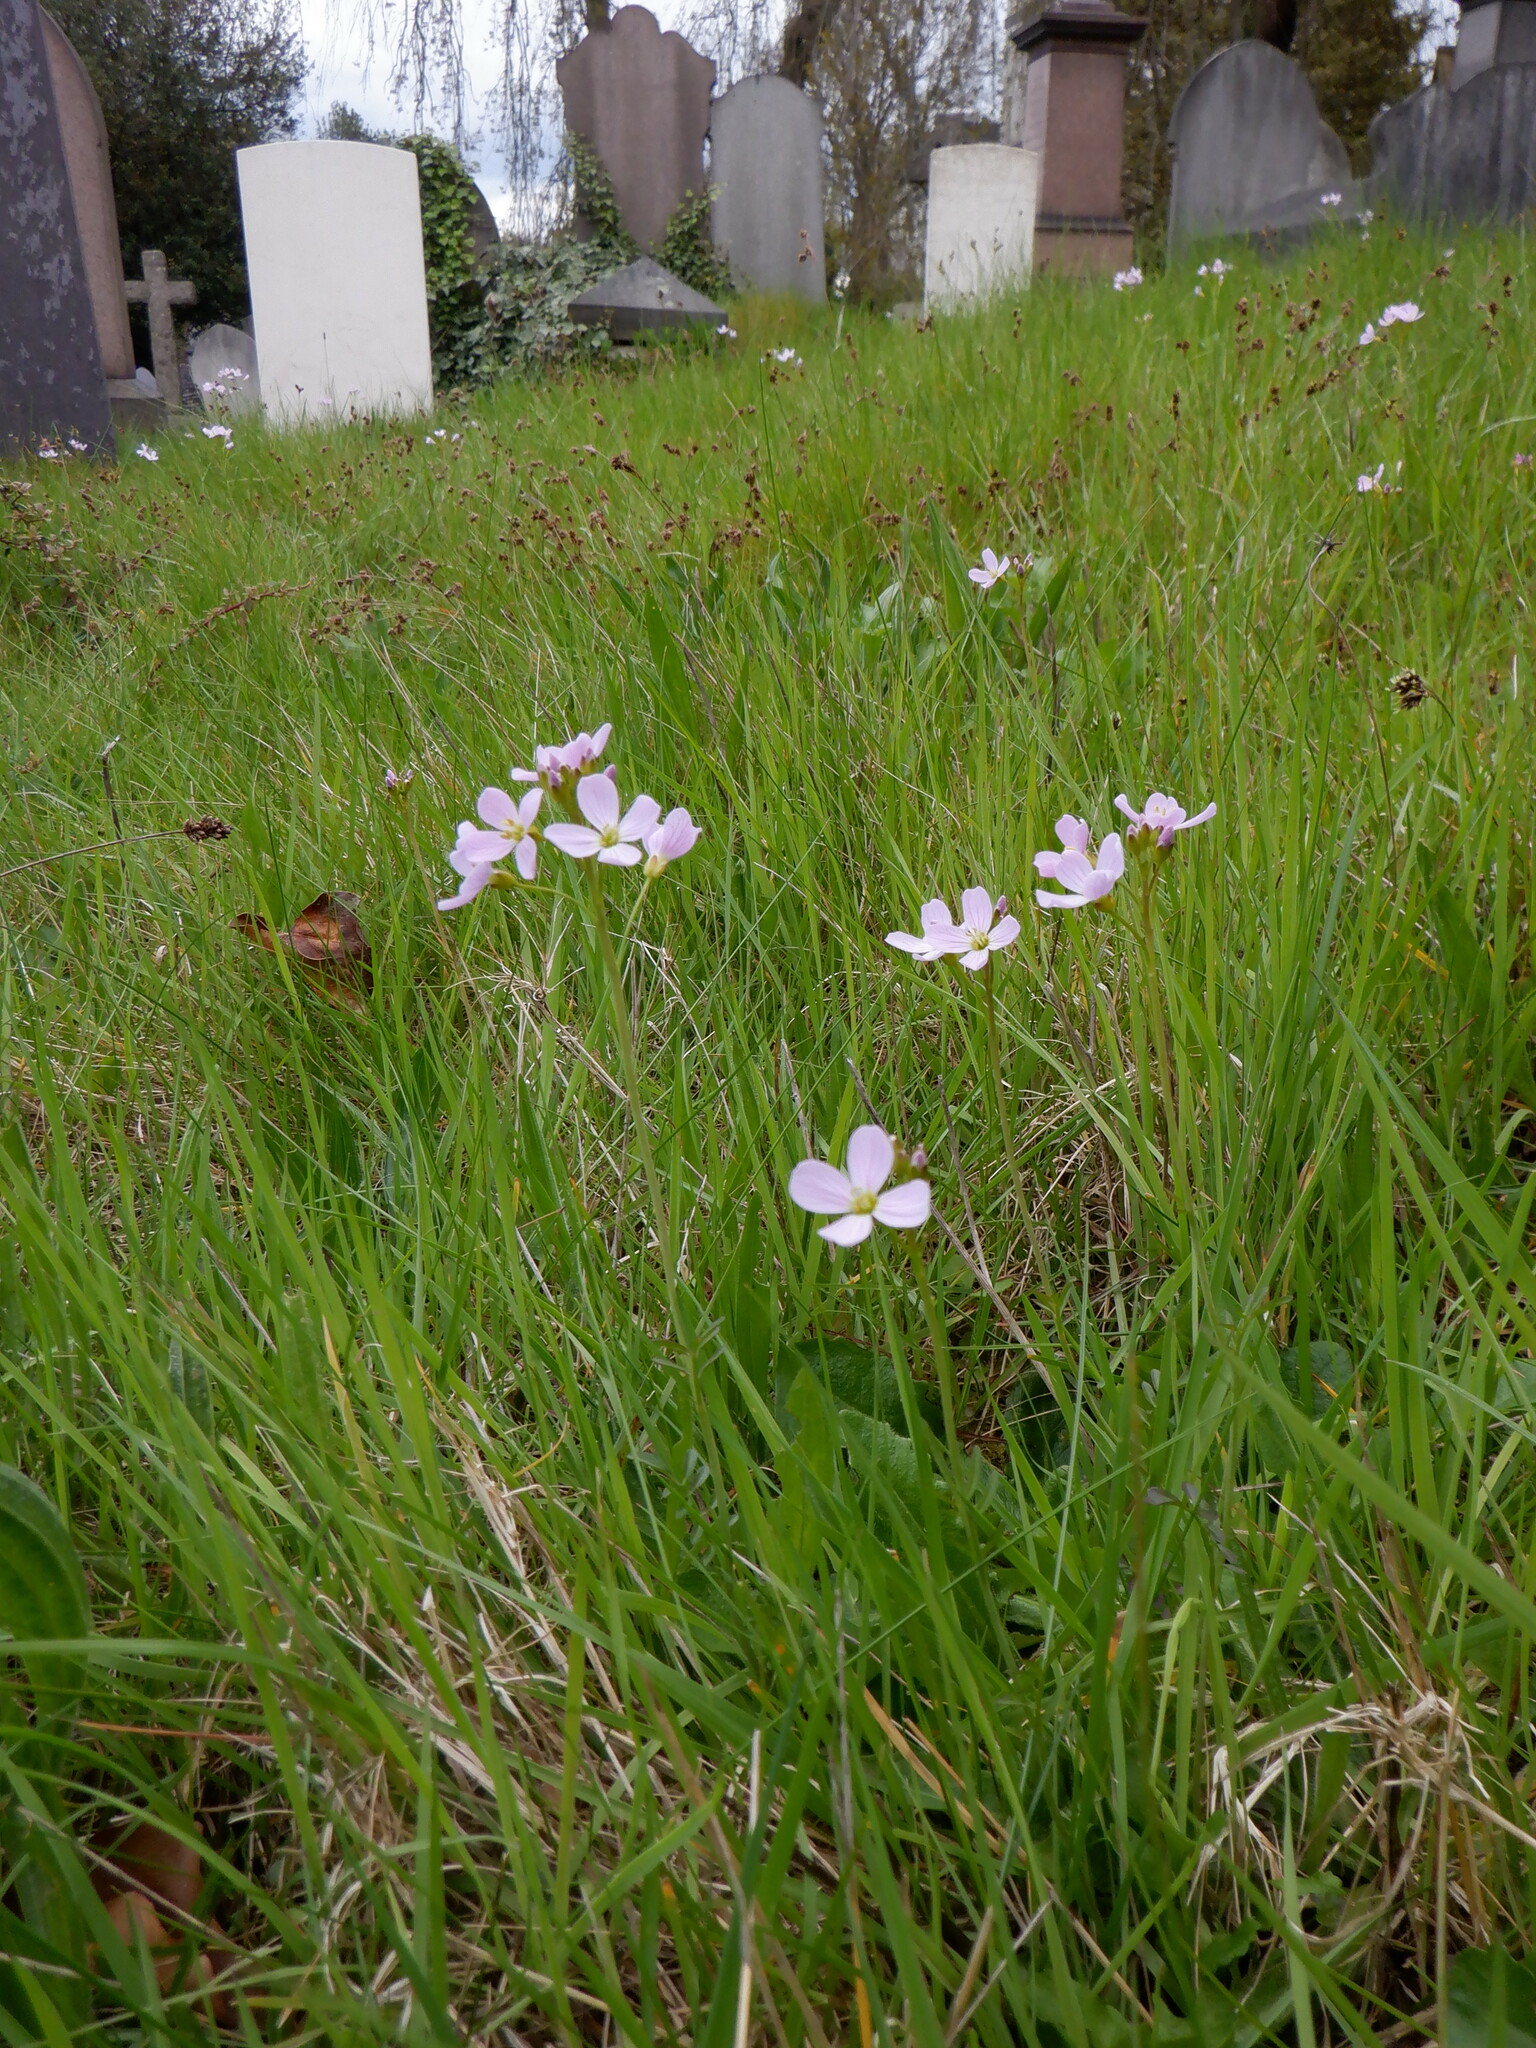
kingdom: Plantae
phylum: Tracheophyta
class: Magnoliopsida
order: Brassicales
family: Brassicaceae
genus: Cardamine
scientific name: Cardamine pratensis
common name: Cuckoo flower
